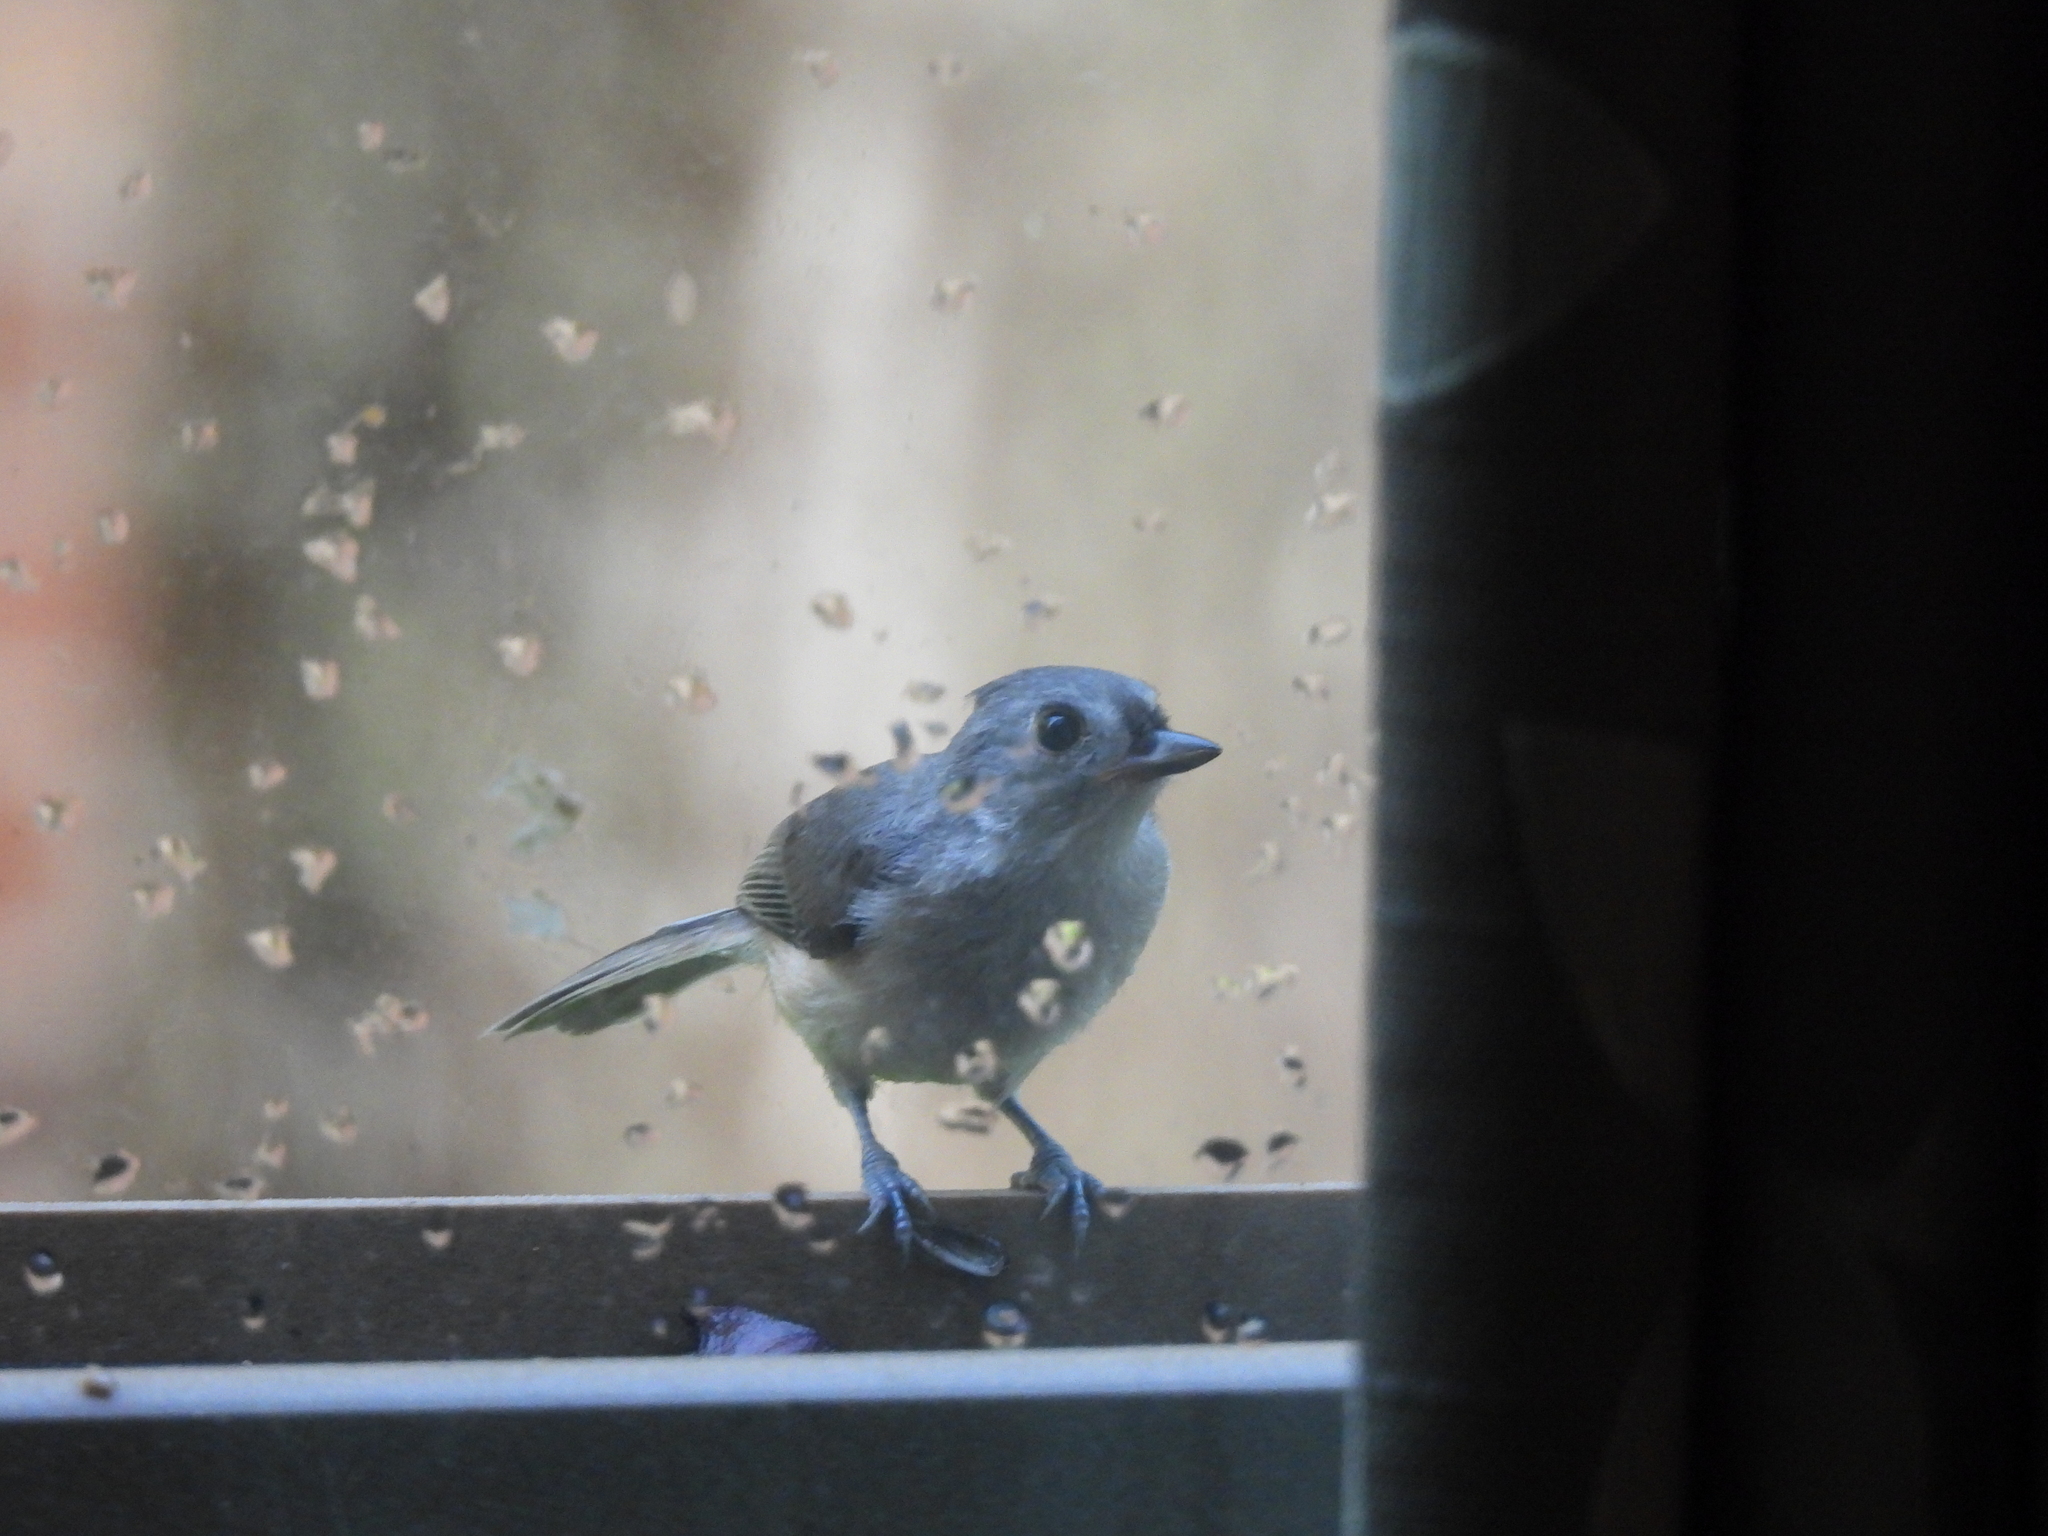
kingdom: Animalia
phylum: Chordata
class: Aves
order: Passeriformes
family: Paridae
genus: Baeolophus
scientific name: Baeolophus bicolor
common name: Tufted titmouse
